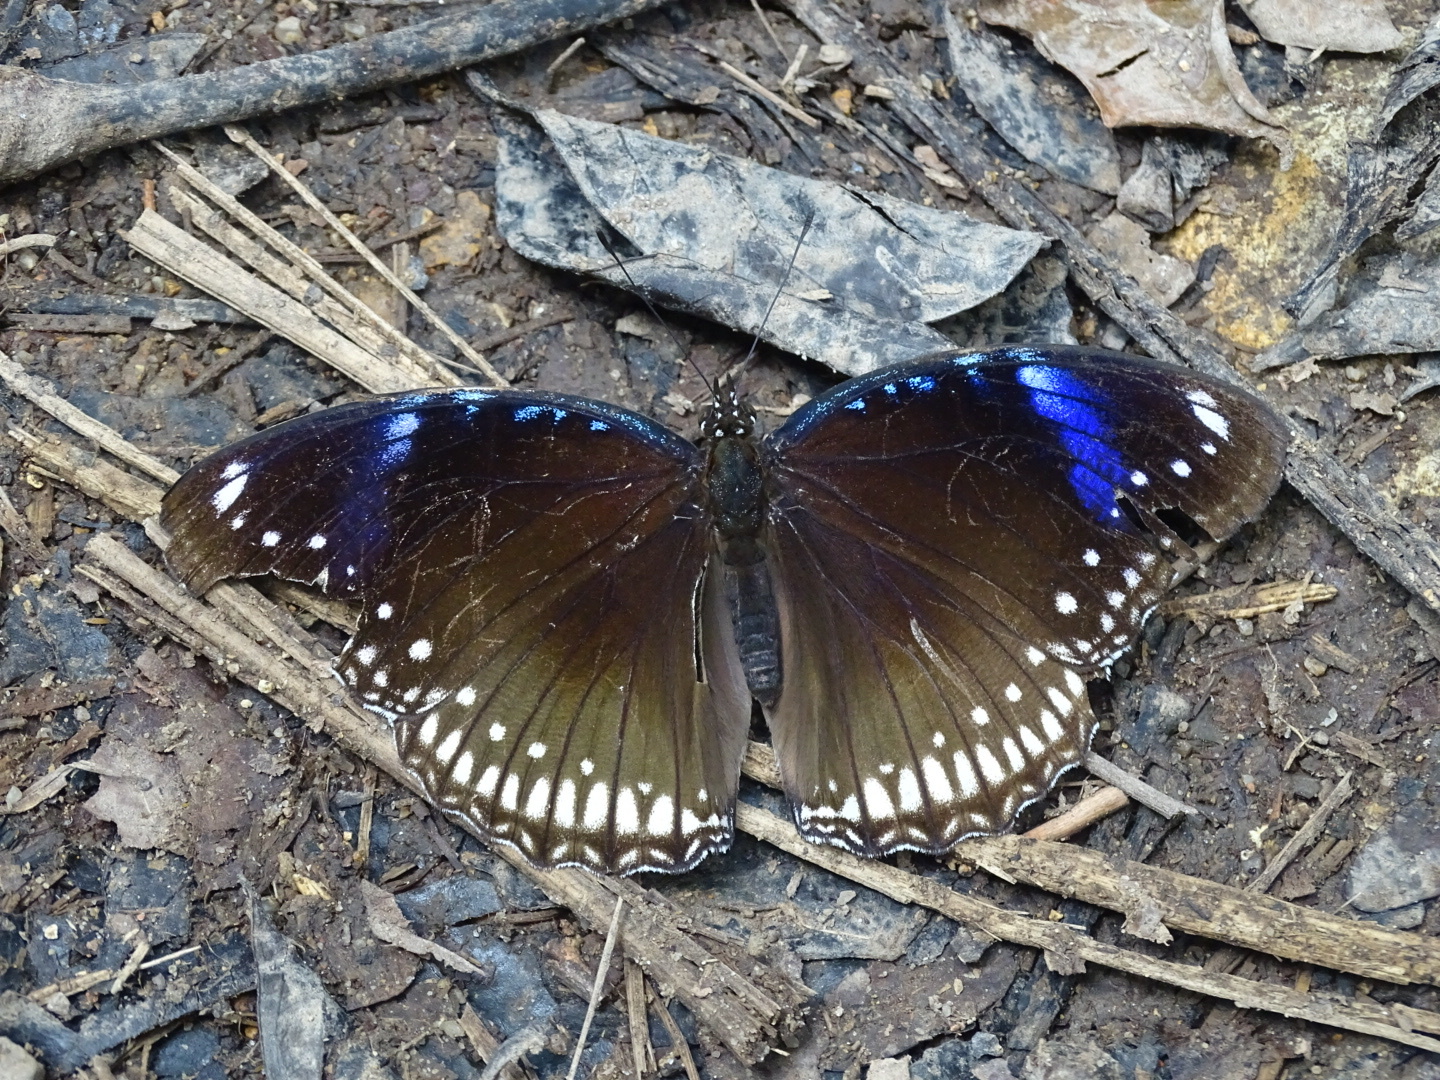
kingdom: Animalia
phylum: Arthropoda
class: Insecta
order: Lepidoptera
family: Nymphalidae
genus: Hypolimnas
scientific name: Hypolimnas bolina
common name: Great eggfly
